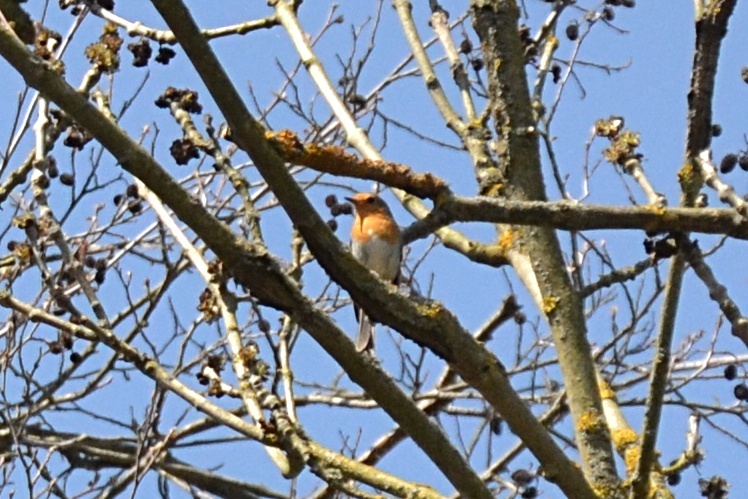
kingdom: Animalia
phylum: Chordata
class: Aves
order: Passeriformes
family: Muscicapidae
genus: Erithacus
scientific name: Erithacus rubecula
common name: European robin
